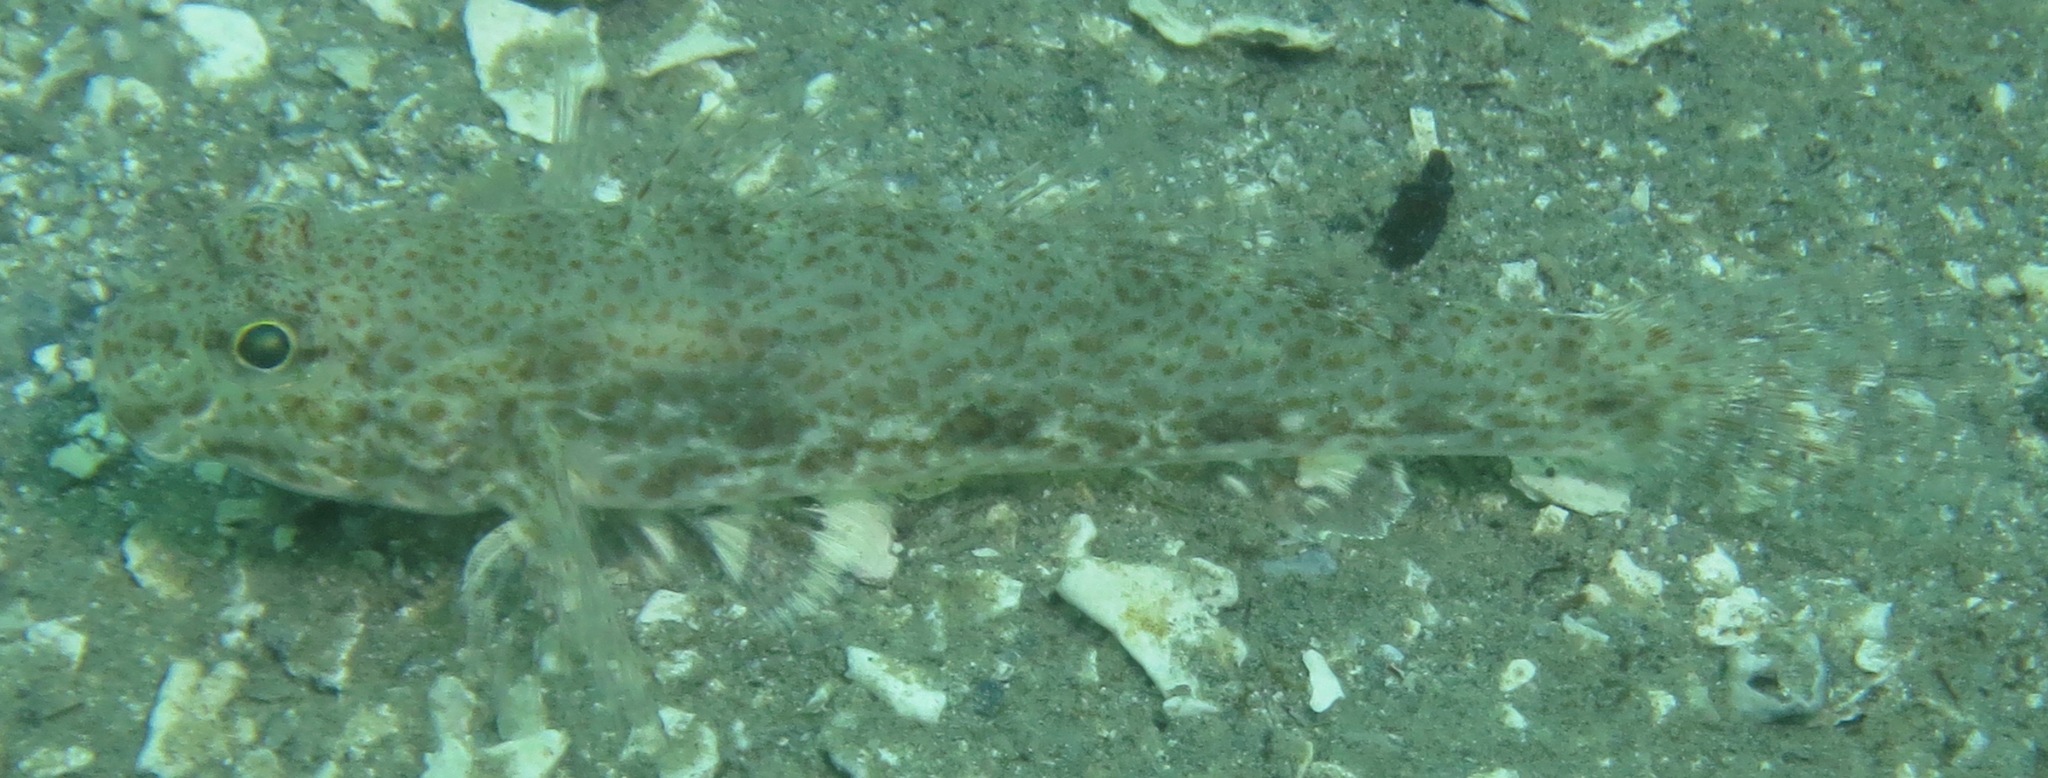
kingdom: Animalia
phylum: Chordata
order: Perciformes
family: Gobiidae
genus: Macrodontogobius
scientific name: Macrodontogobius wilburi
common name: Largetooth goby
